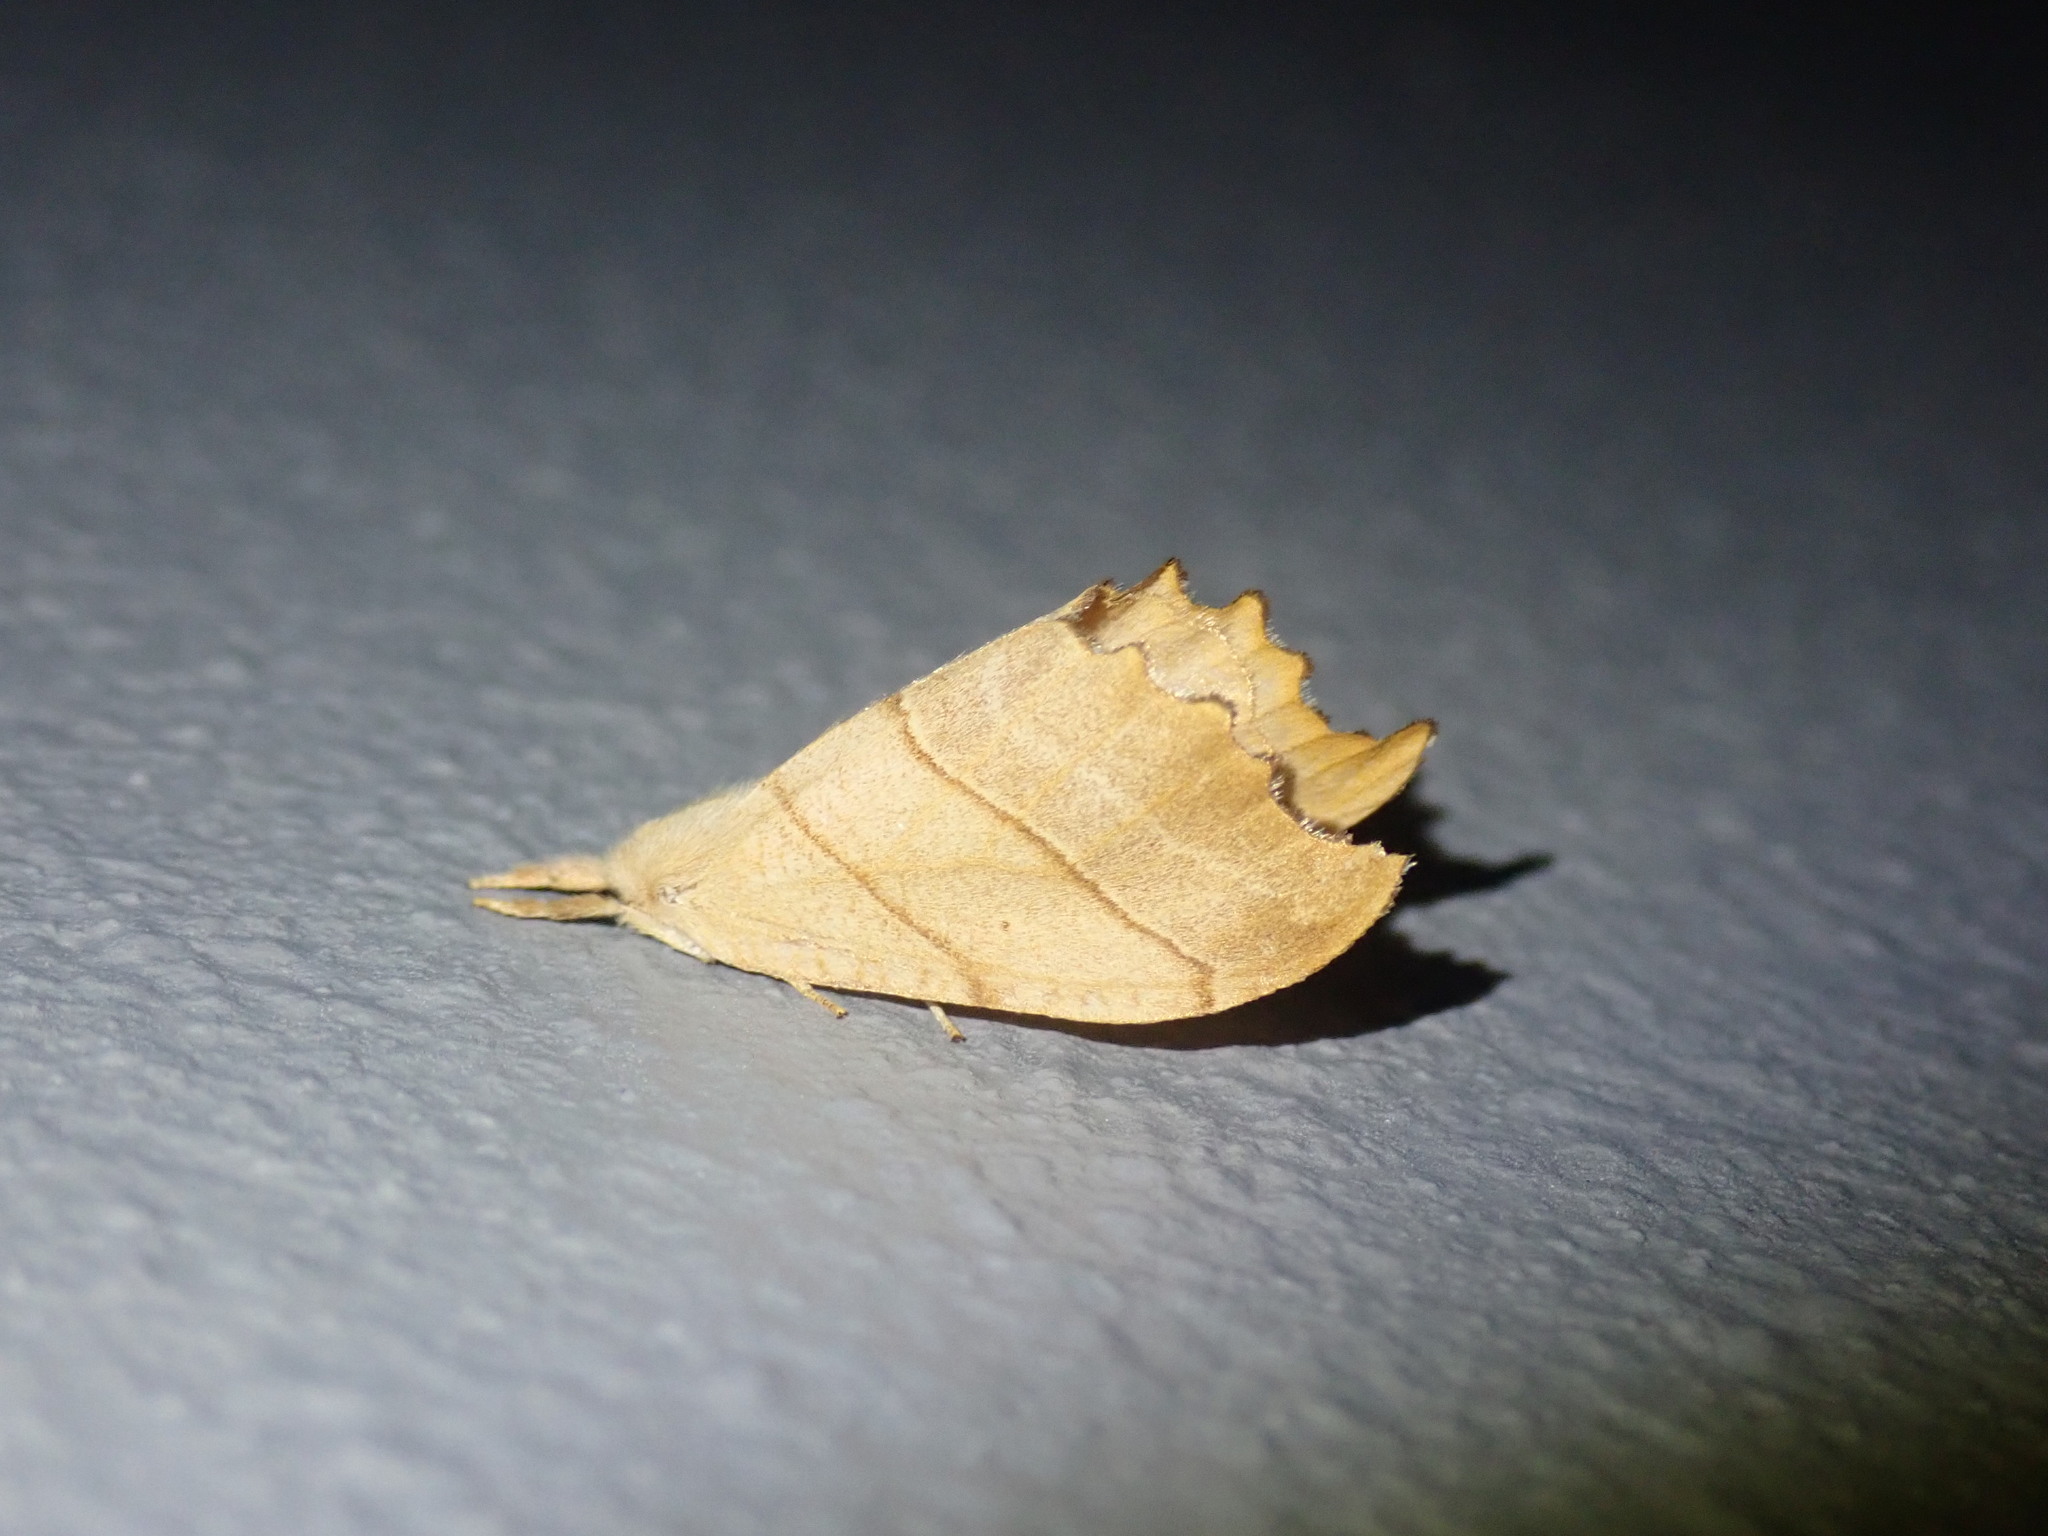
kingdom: Animalia
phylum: Arthropoda
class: Insecta
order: Lepidoptera
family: Drepanidae
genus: Falcaria
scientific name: Falcaria bilineata
